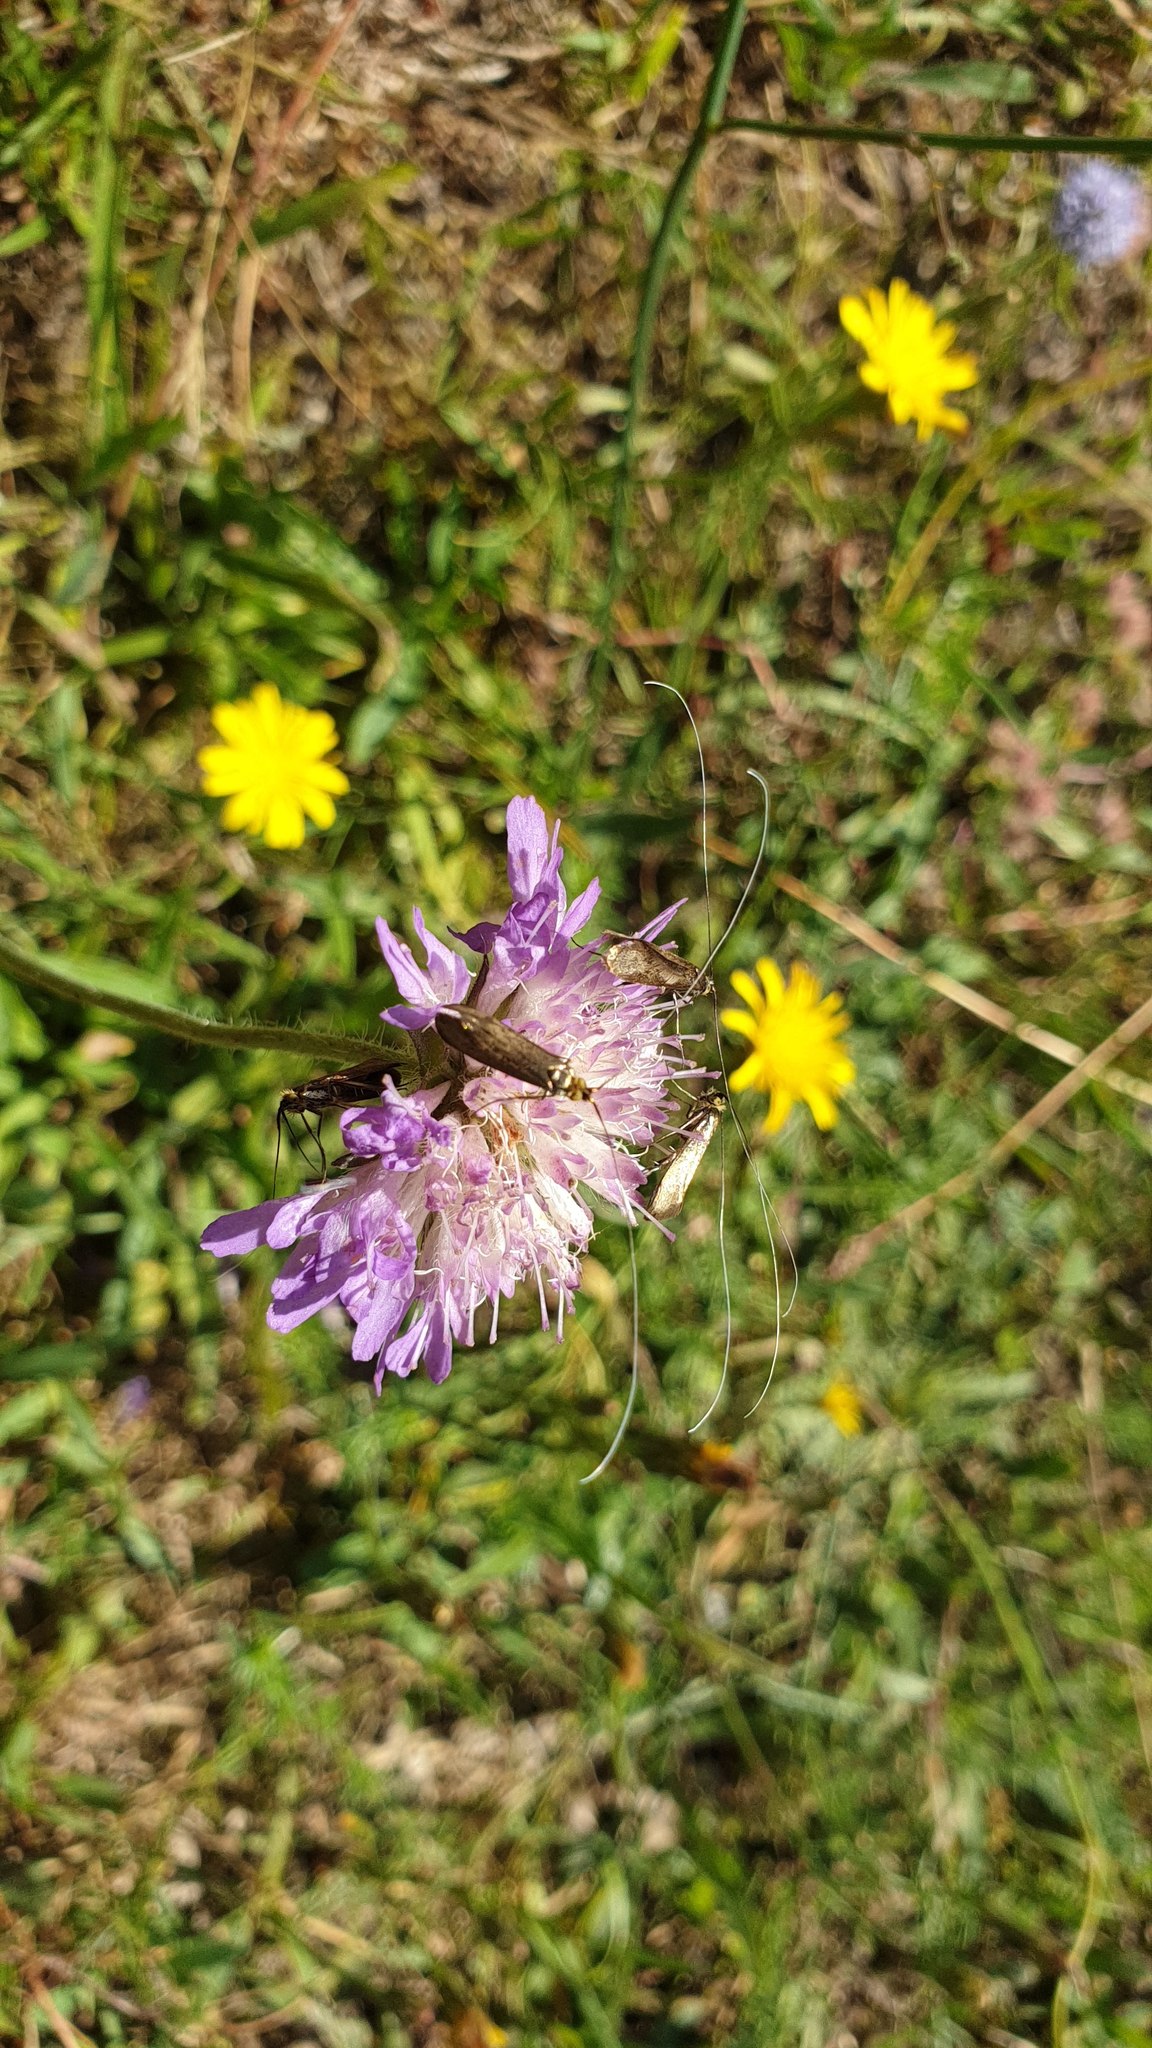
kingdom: Animalia
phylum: Arthropoda
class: Insecta
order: Lepidoptera
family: Adelidae
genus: Nemophora
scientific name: Nemophora metallica
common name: Brassy long-horn
